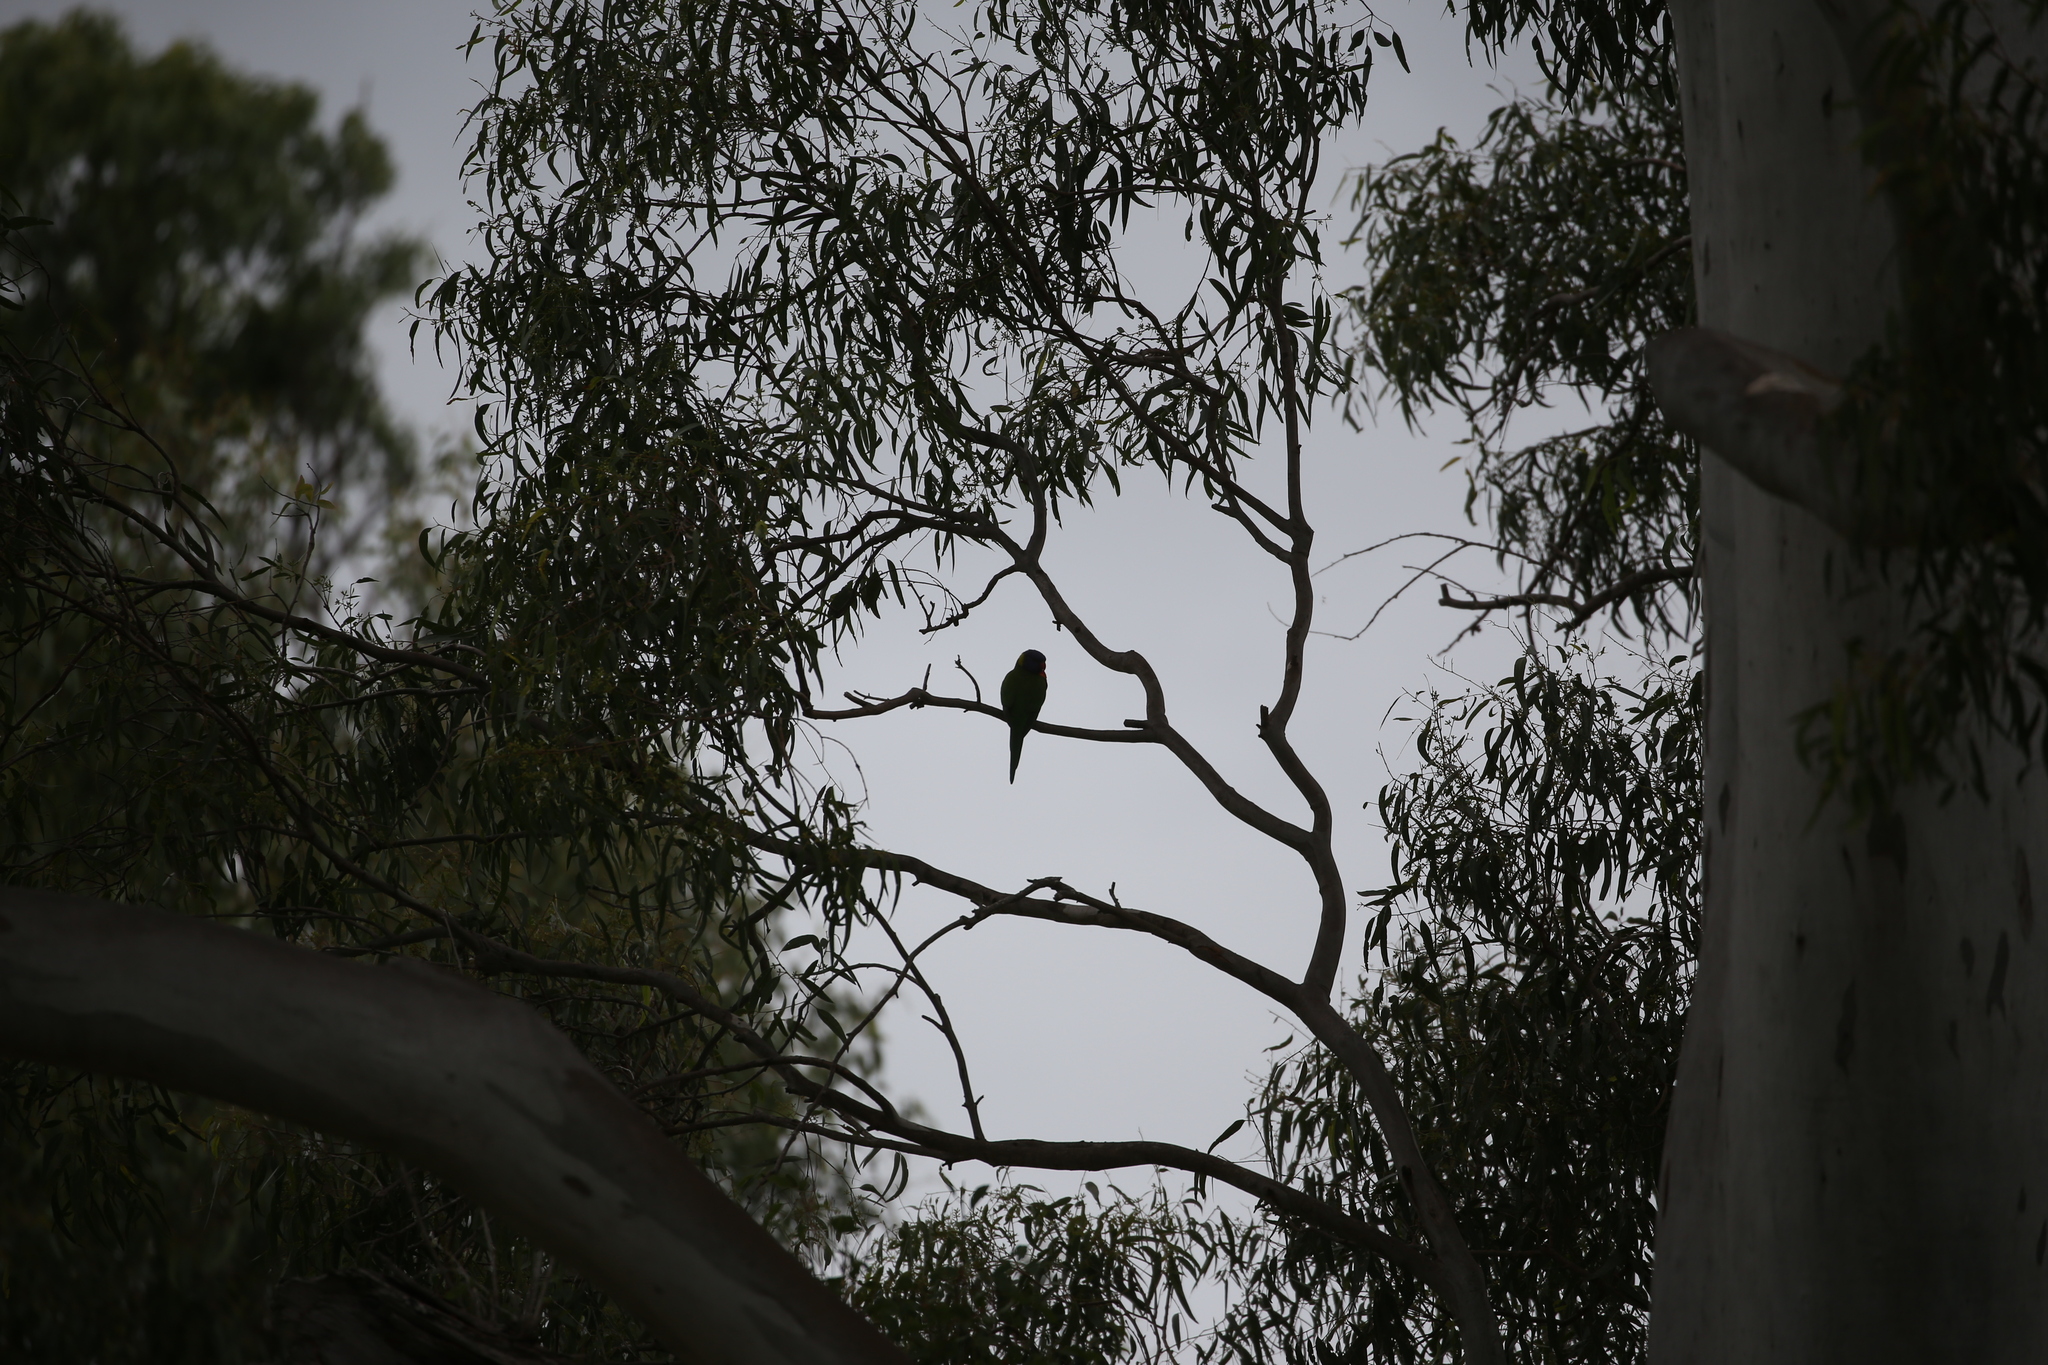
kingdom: Animalia
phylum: Chordata
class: Aves
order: Psittaciformes
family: Psittacidae
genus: Trichoglossus
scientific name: Trichoglossus haematodus
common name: Coconut lorikeet
